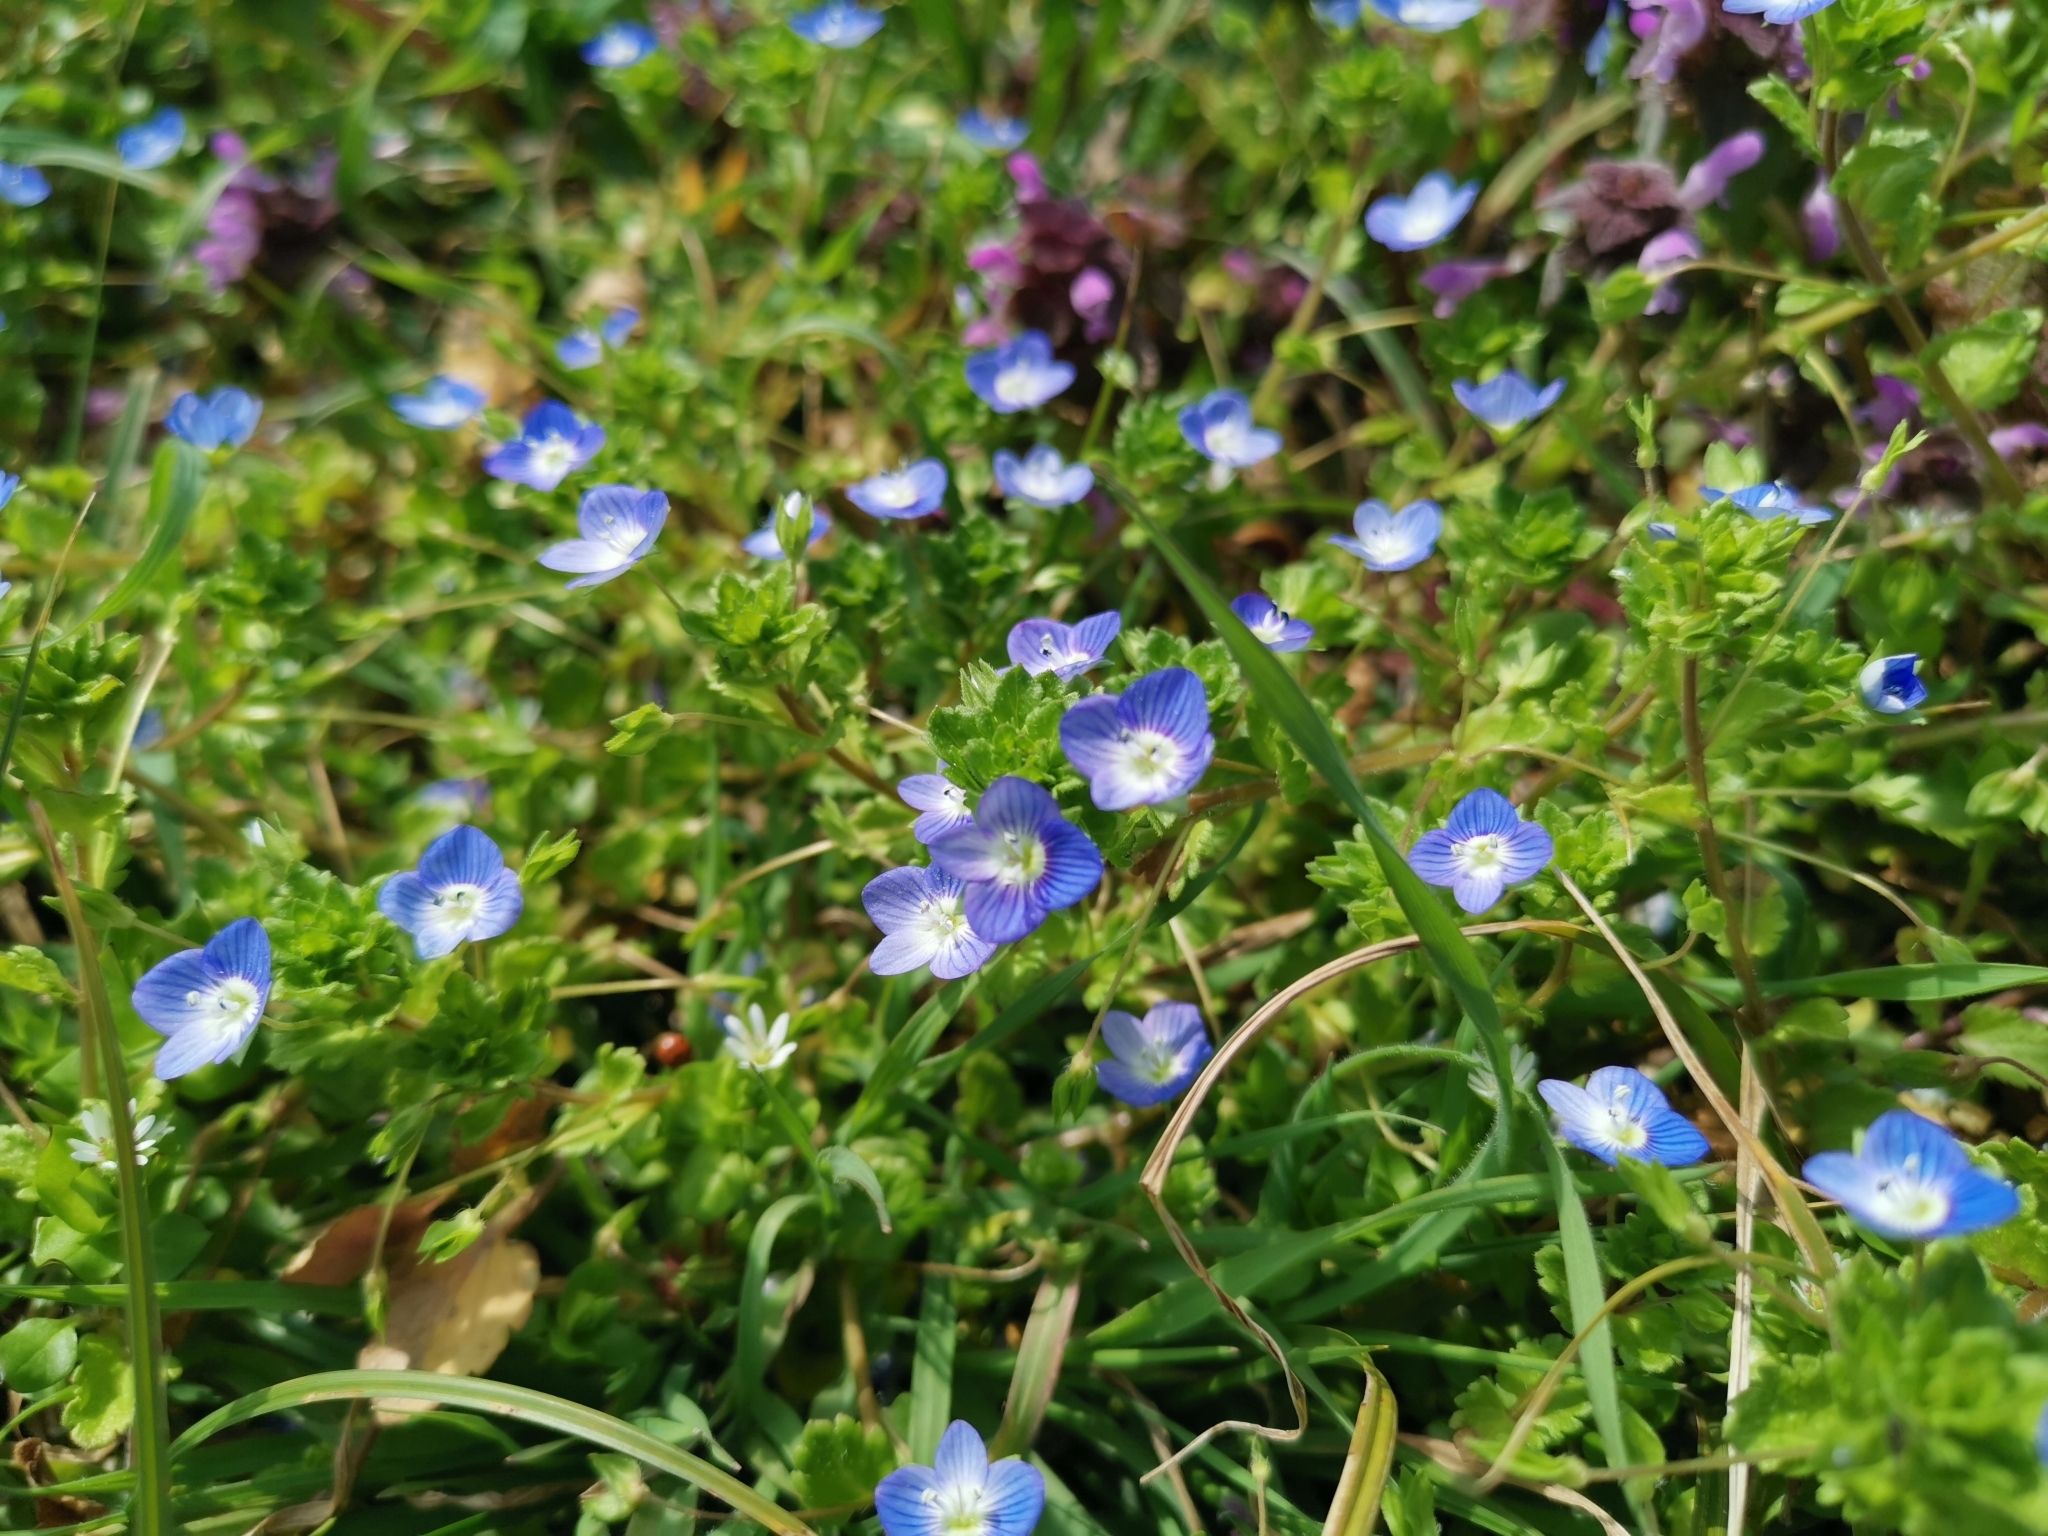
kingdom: Plantae
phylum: Tracheophyta
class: Magnoliopsida
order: Lamiales
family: Plantaginaceae
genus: Veronica
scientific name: Veronica persica
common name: Common field-speedwell
